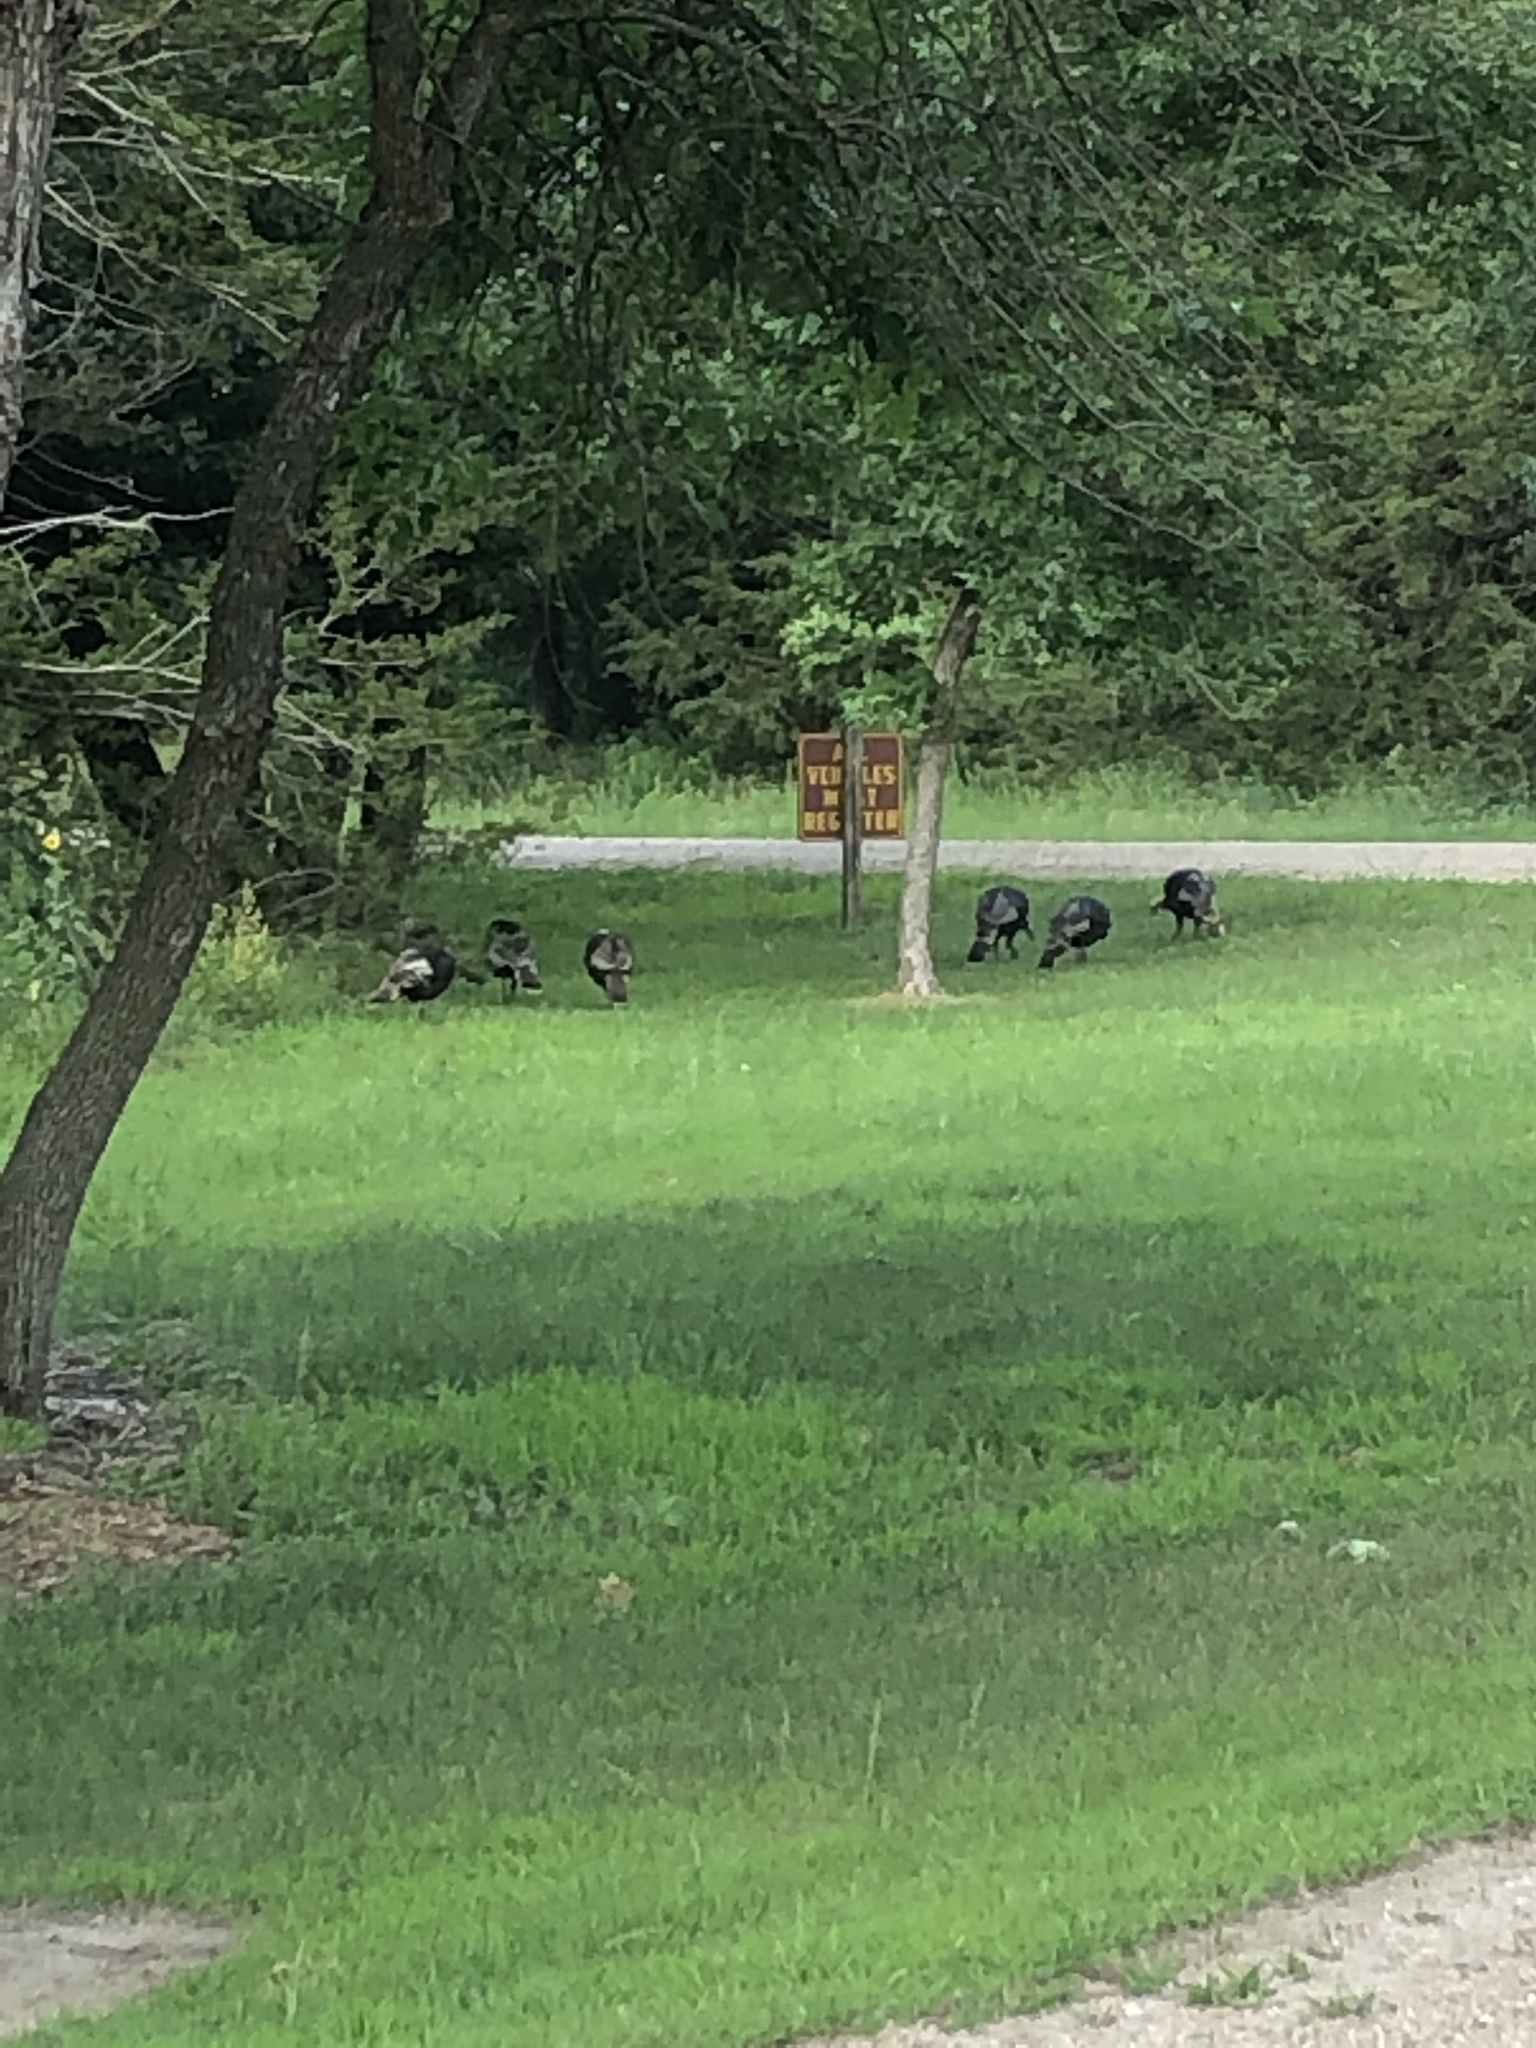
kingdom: Animalia
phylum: Chordata
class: Aves
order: Galliformes
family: Phasianidae
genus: Meleagris
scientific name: Meleagris gallopavo
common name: Wild turkey
